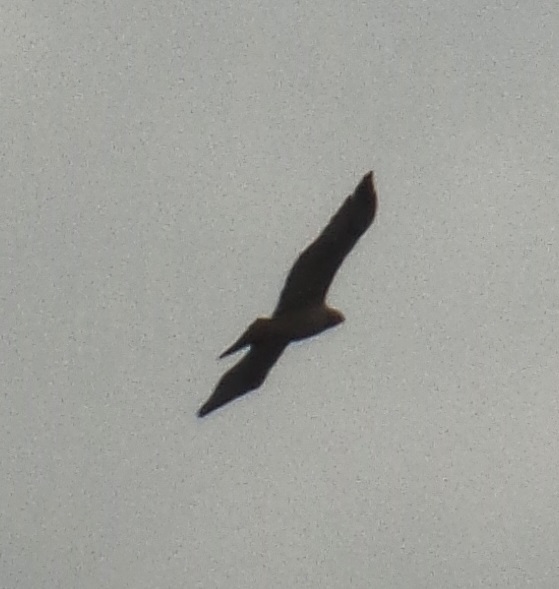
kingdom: Animalia
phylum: Chordata
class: Aves
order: Accipitriformes
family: Accipitridae
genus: Buteo
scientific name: Buteo
